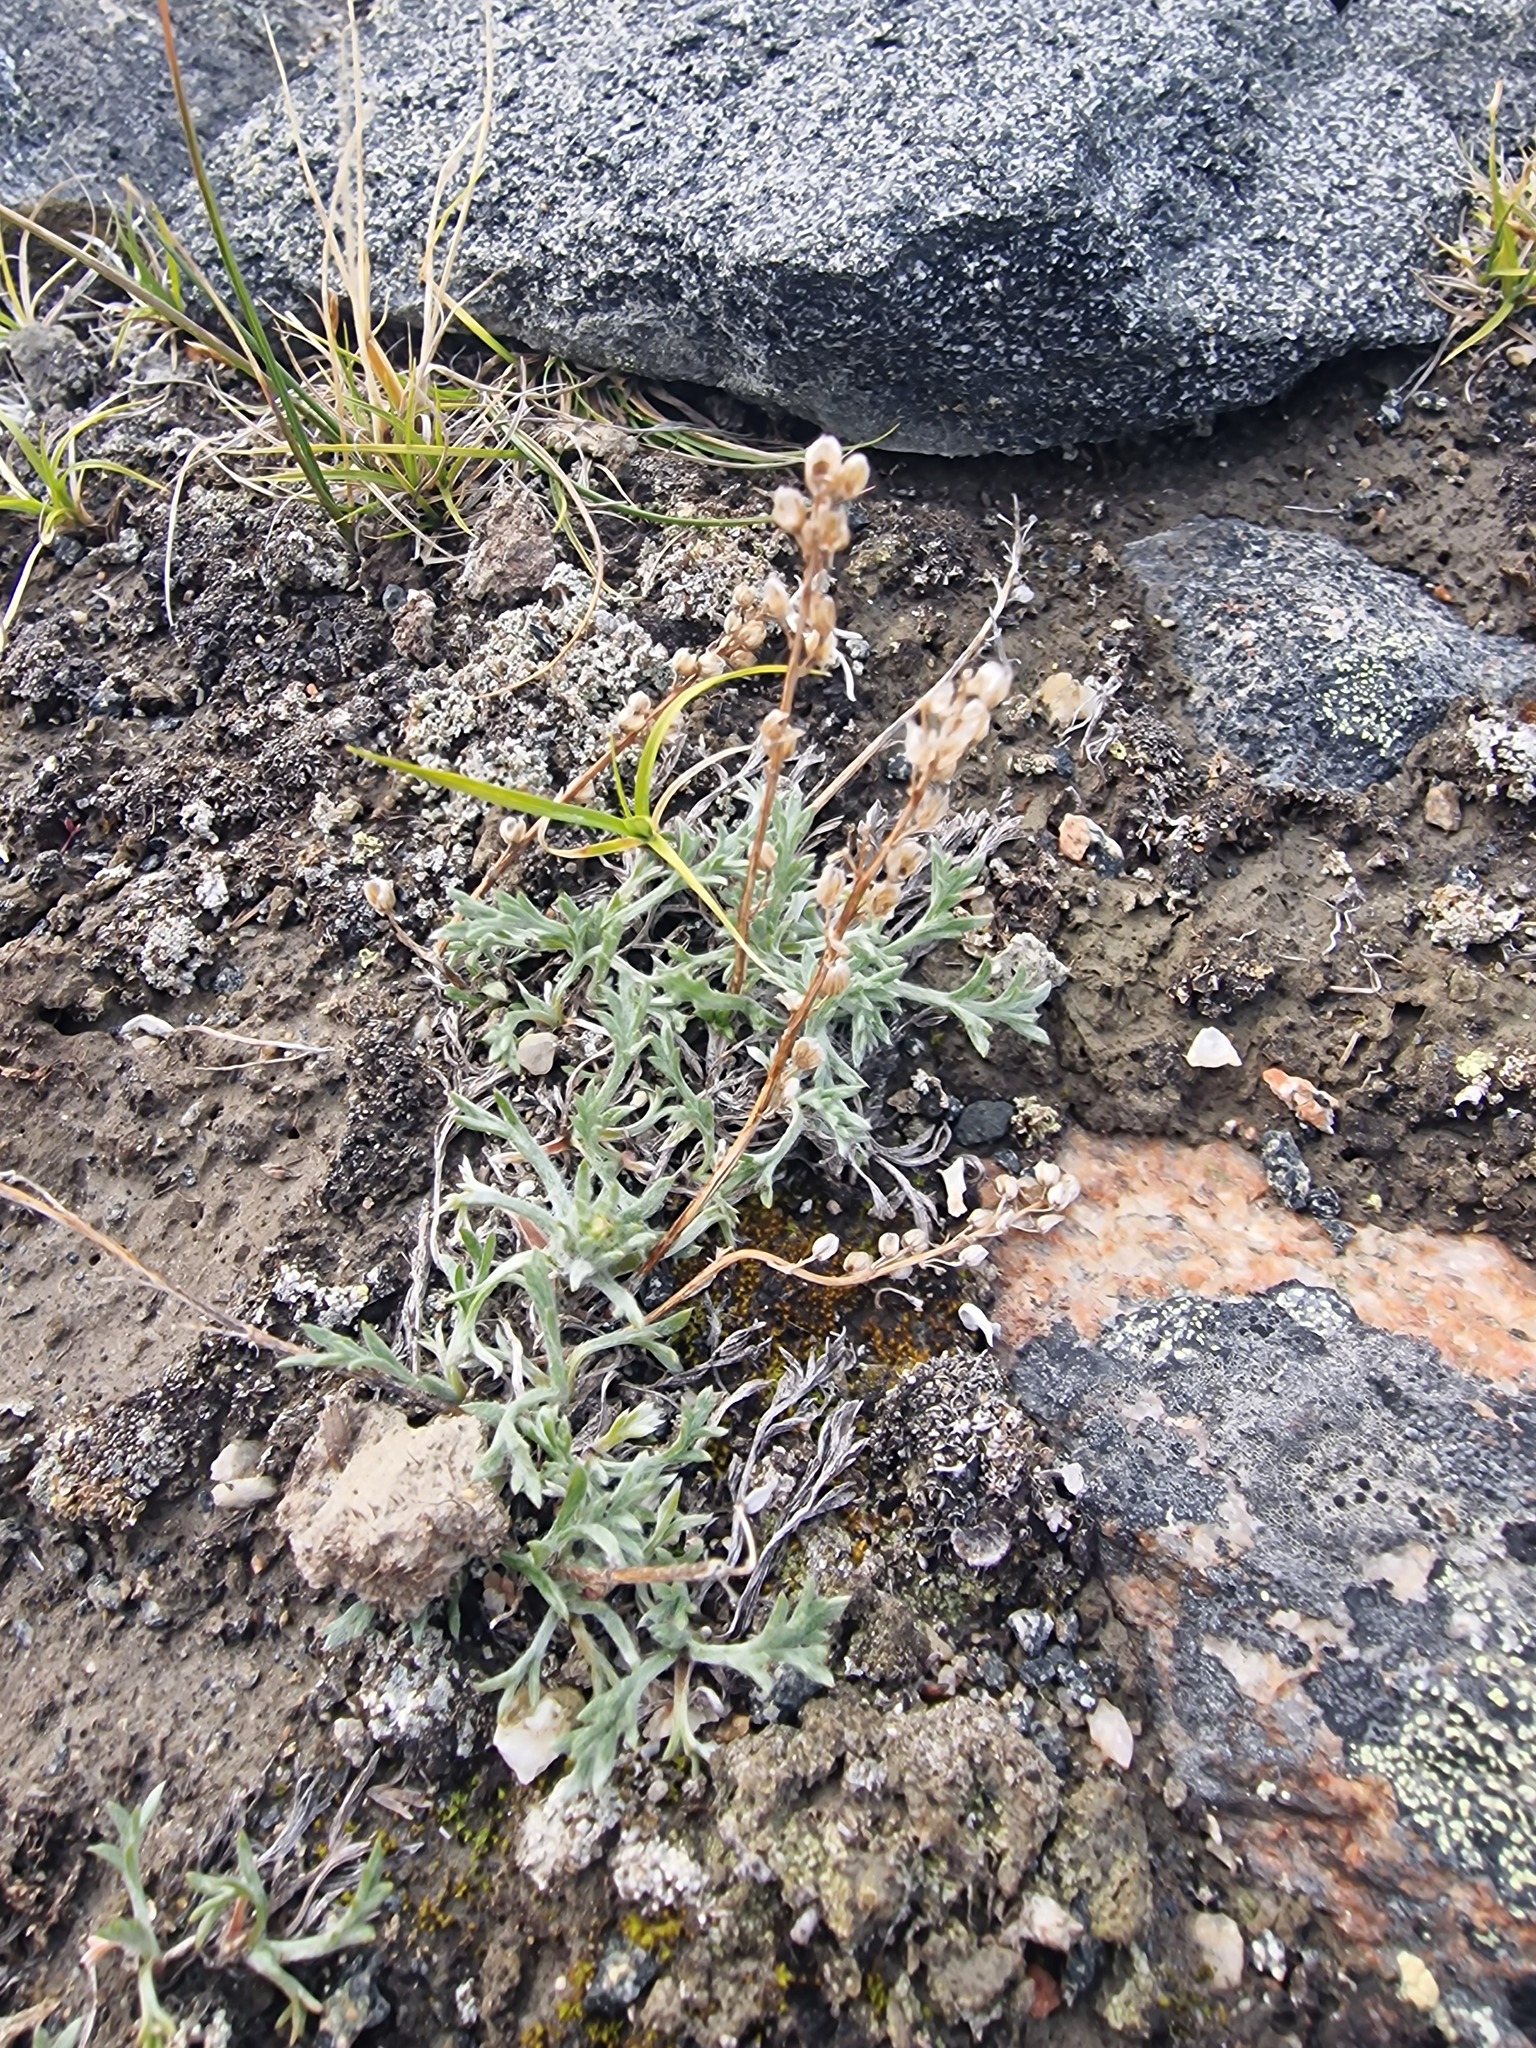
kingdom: Plantae
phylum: Tracheophyta
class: Magnoliopsida
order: Asterales
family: Asteraceae
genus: Artemisia
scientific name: Artemisia borealis
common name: Boreal sage
